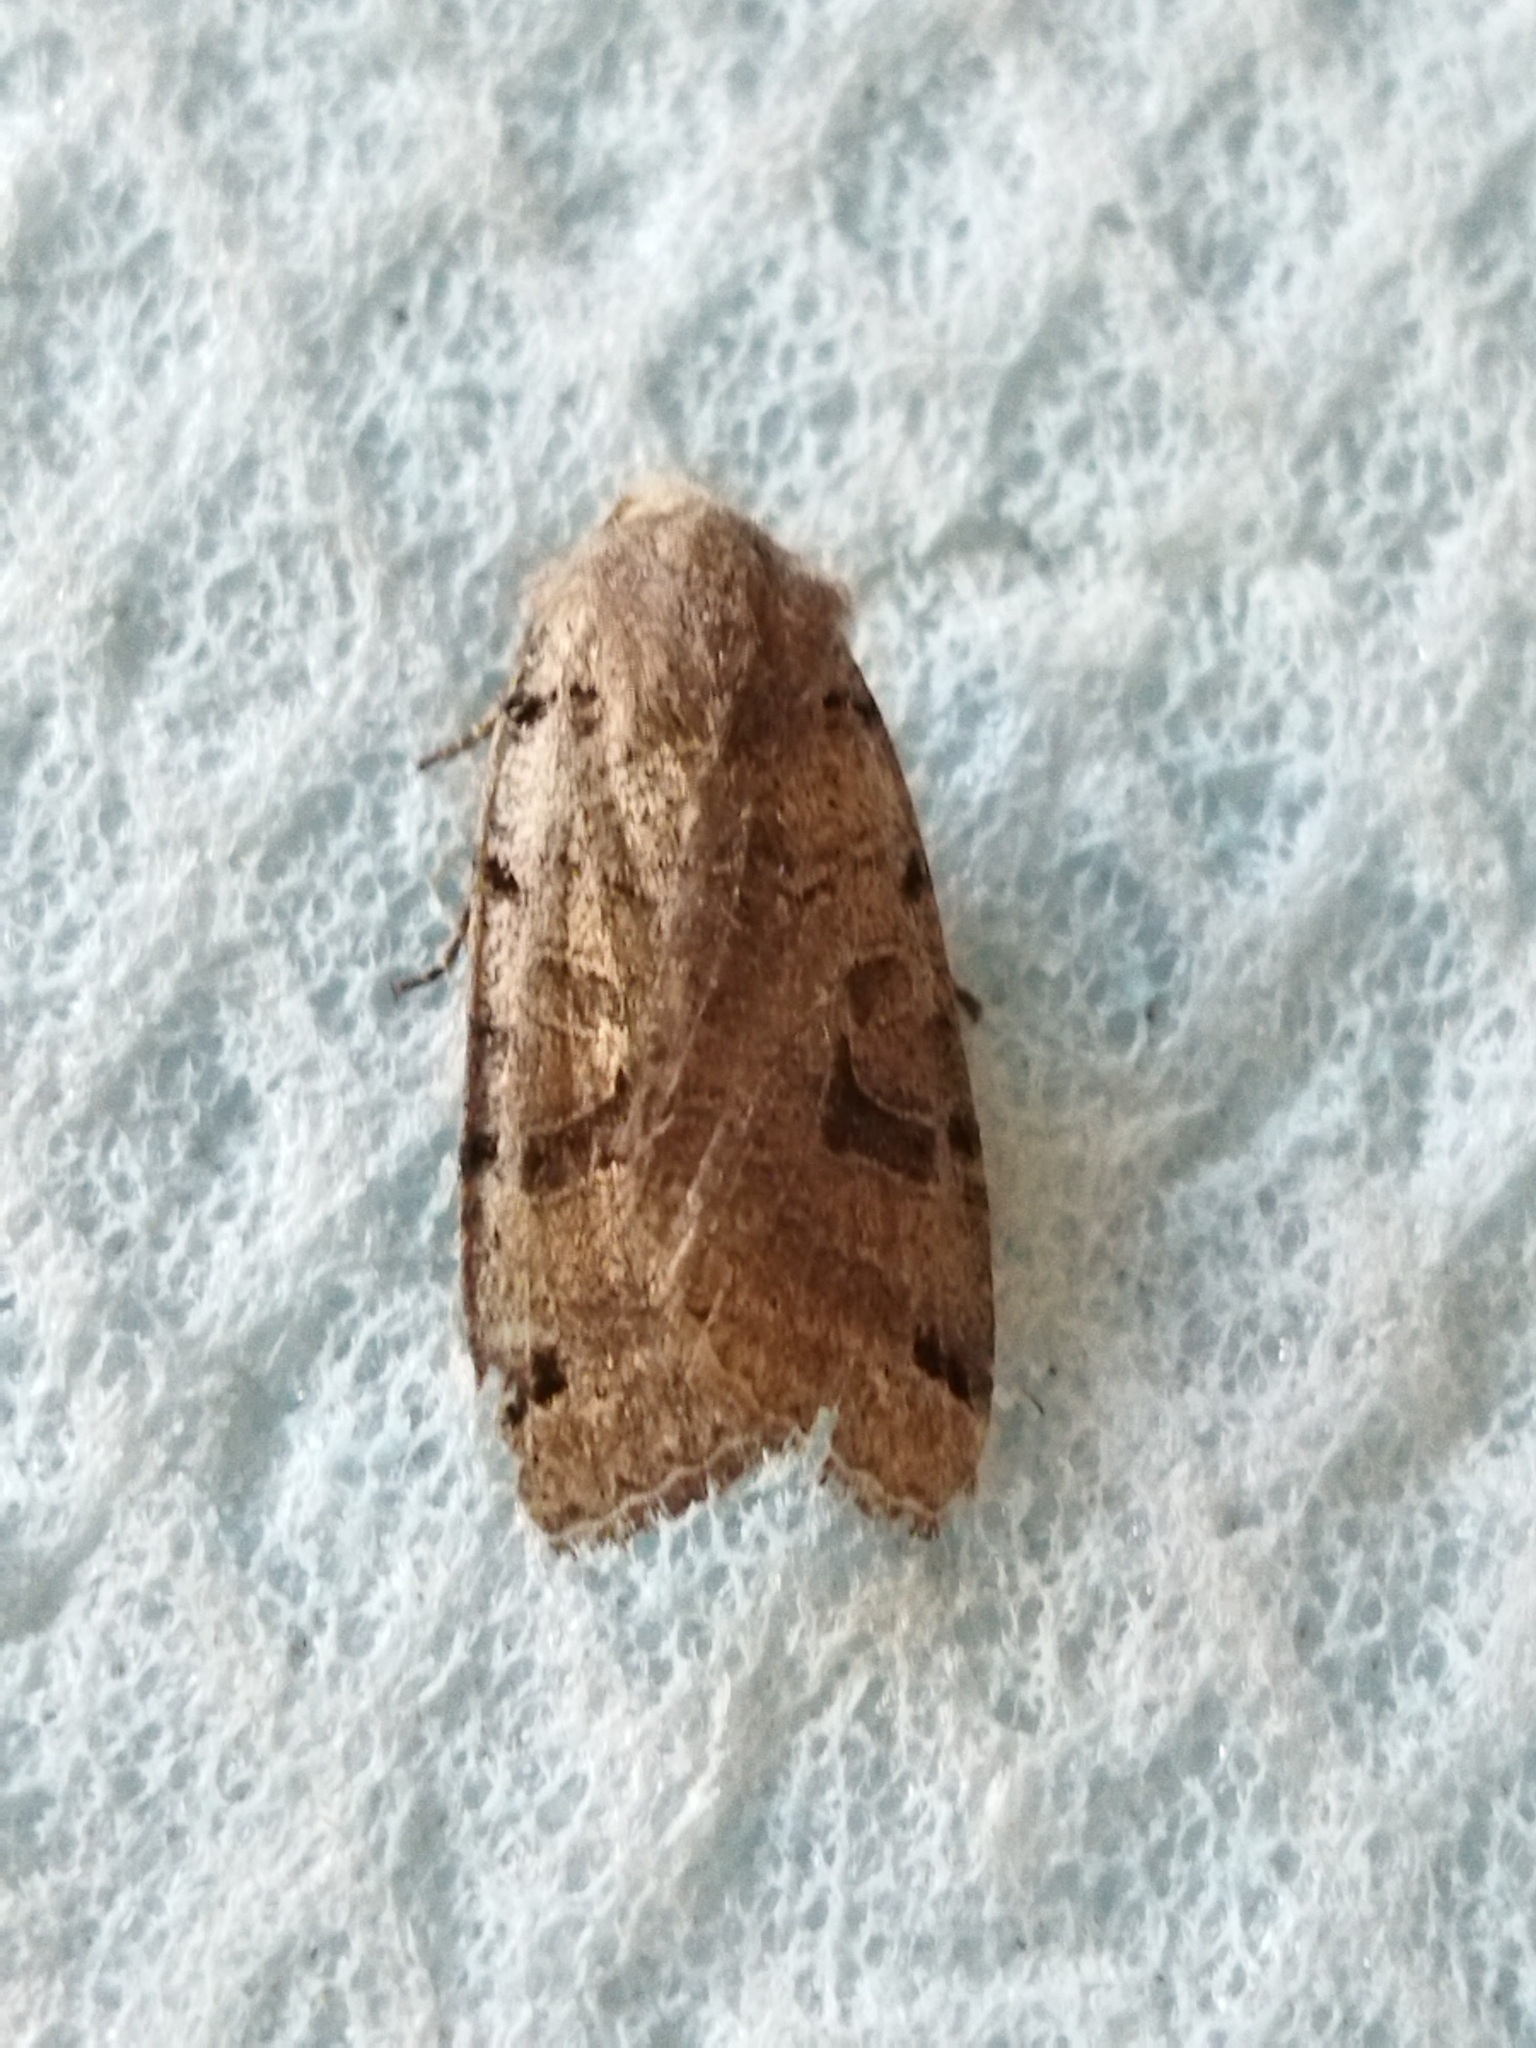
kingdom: Animalia
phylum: Arthropoda
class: Insecta
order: Lepidoptera
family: Noctuidae
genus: Agrochola
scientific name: Agrochola litura
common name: Brown-spot pinion
